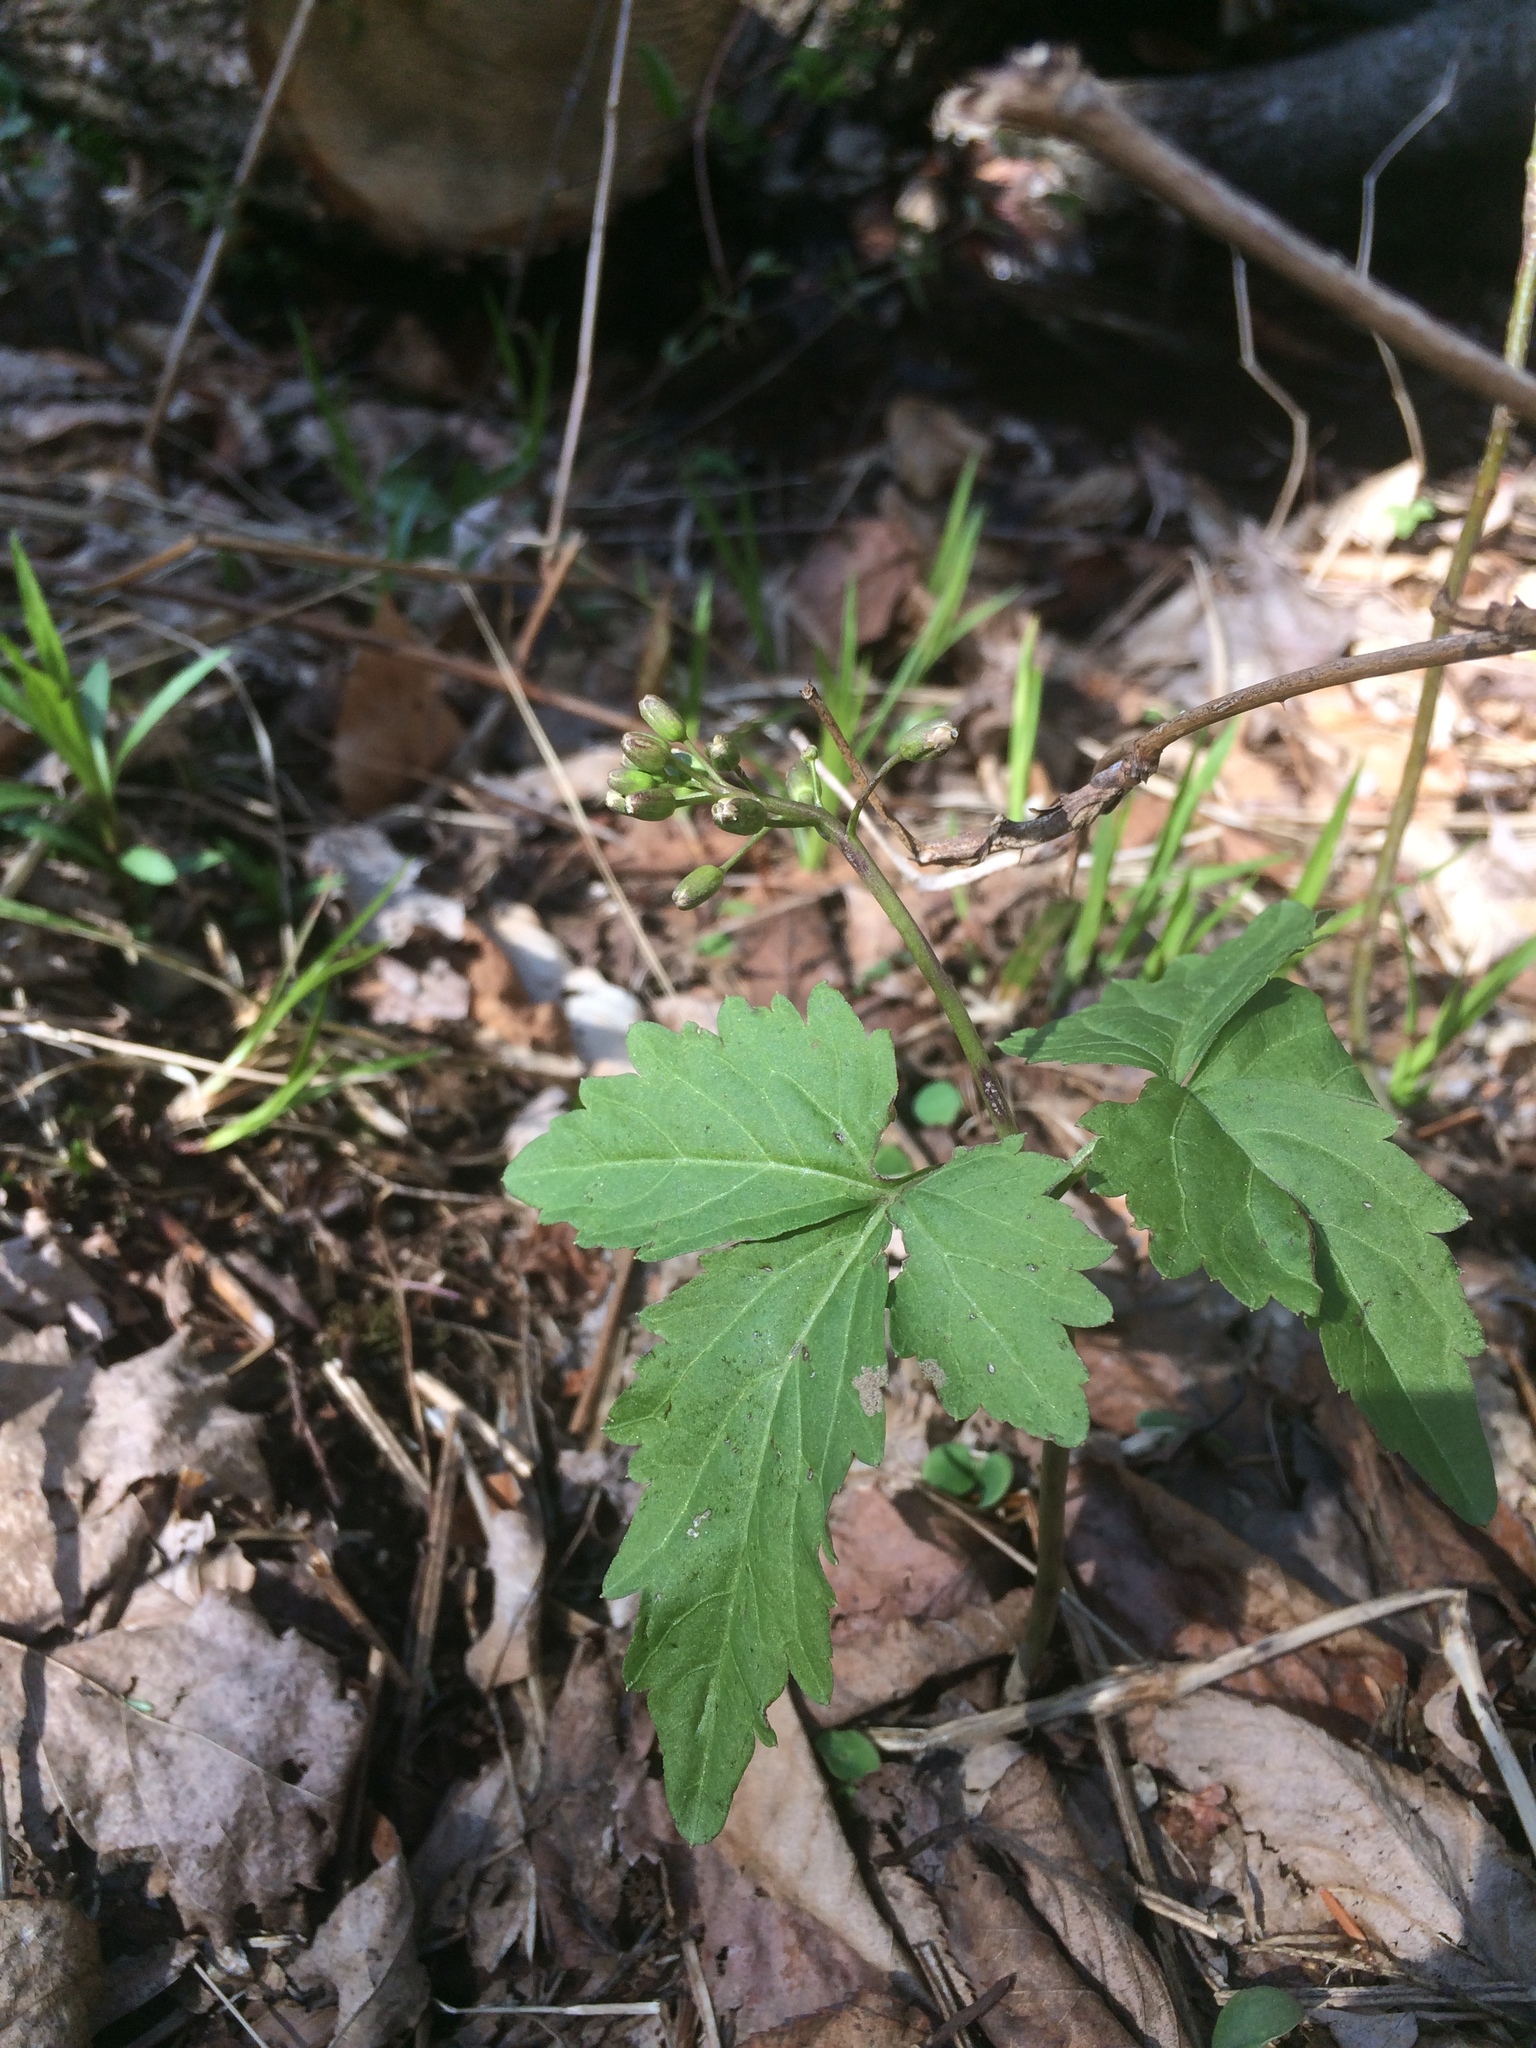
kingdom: Plantae
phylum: Tracheophyta
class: Magnoliopsida
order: Brassicales
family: Brassicaceae
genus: Cardamine
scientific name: Cardamine diphylla
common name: Broad-leaved toothwort
